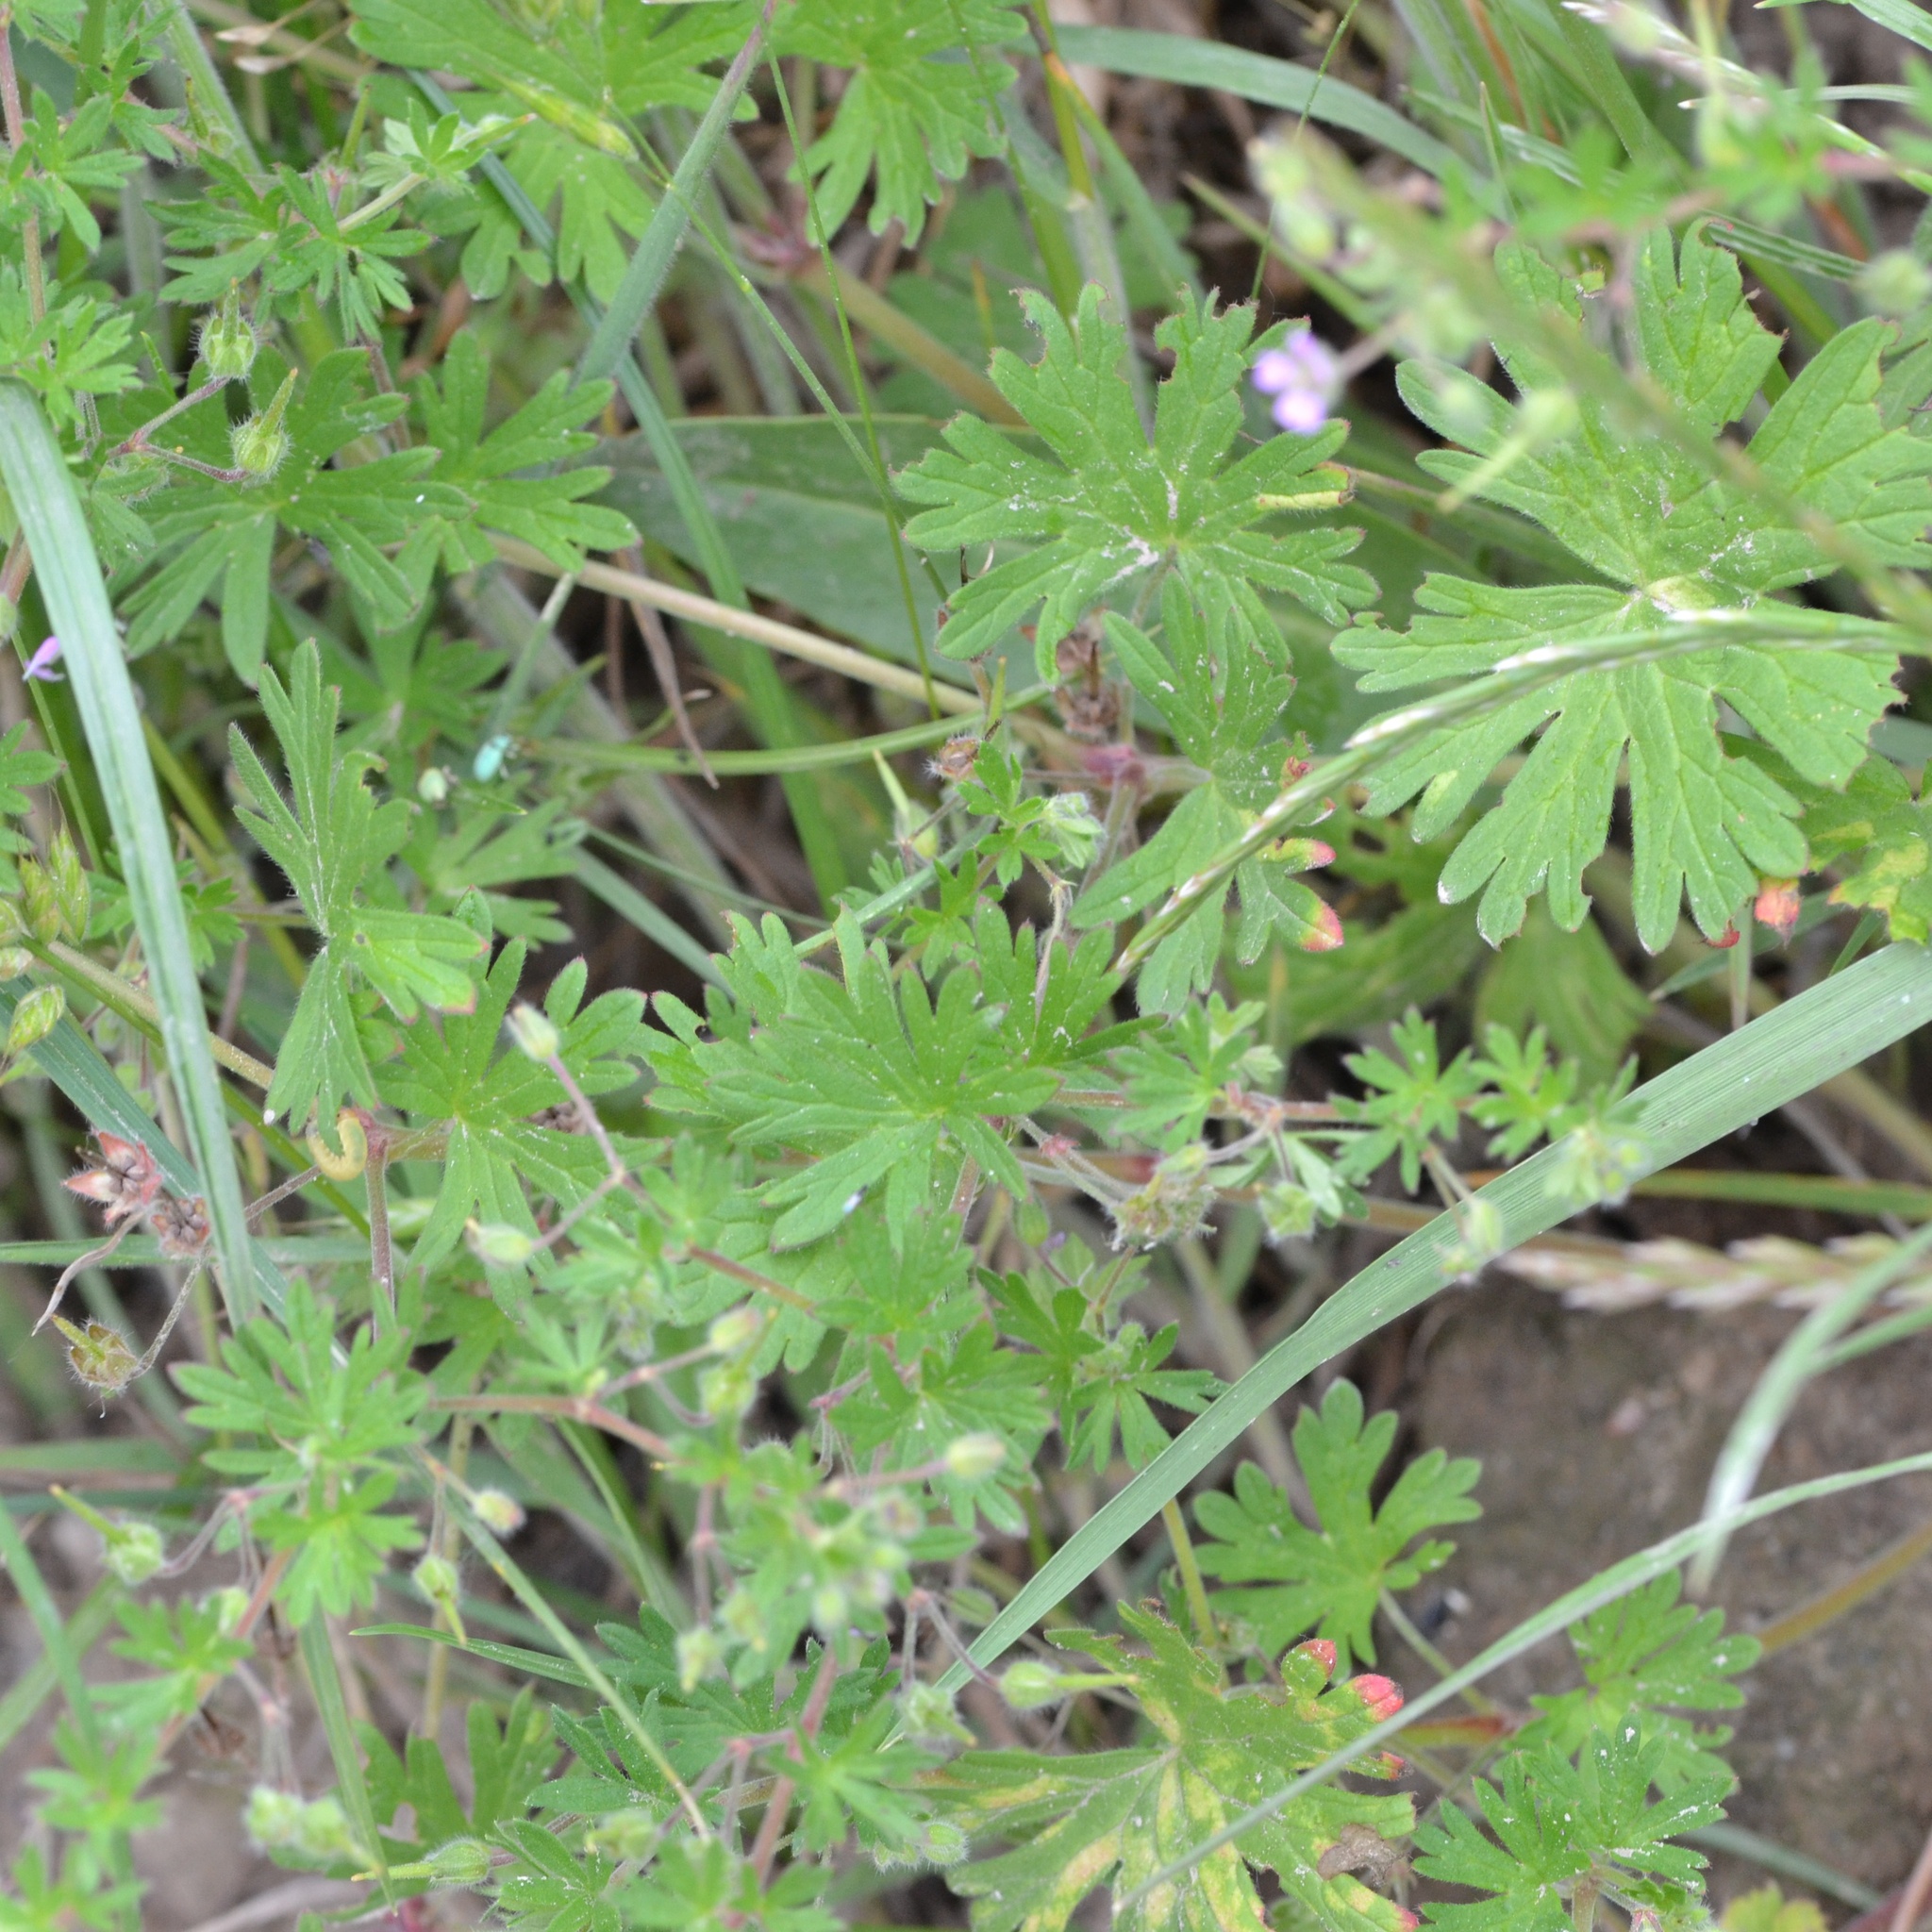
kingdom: Plantae
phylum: Tracheophyta
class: Magnoliopsida
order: Geraniales
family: Geraniaceae
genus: Geranium
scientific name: Geranium pusillum
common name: Small geranium
